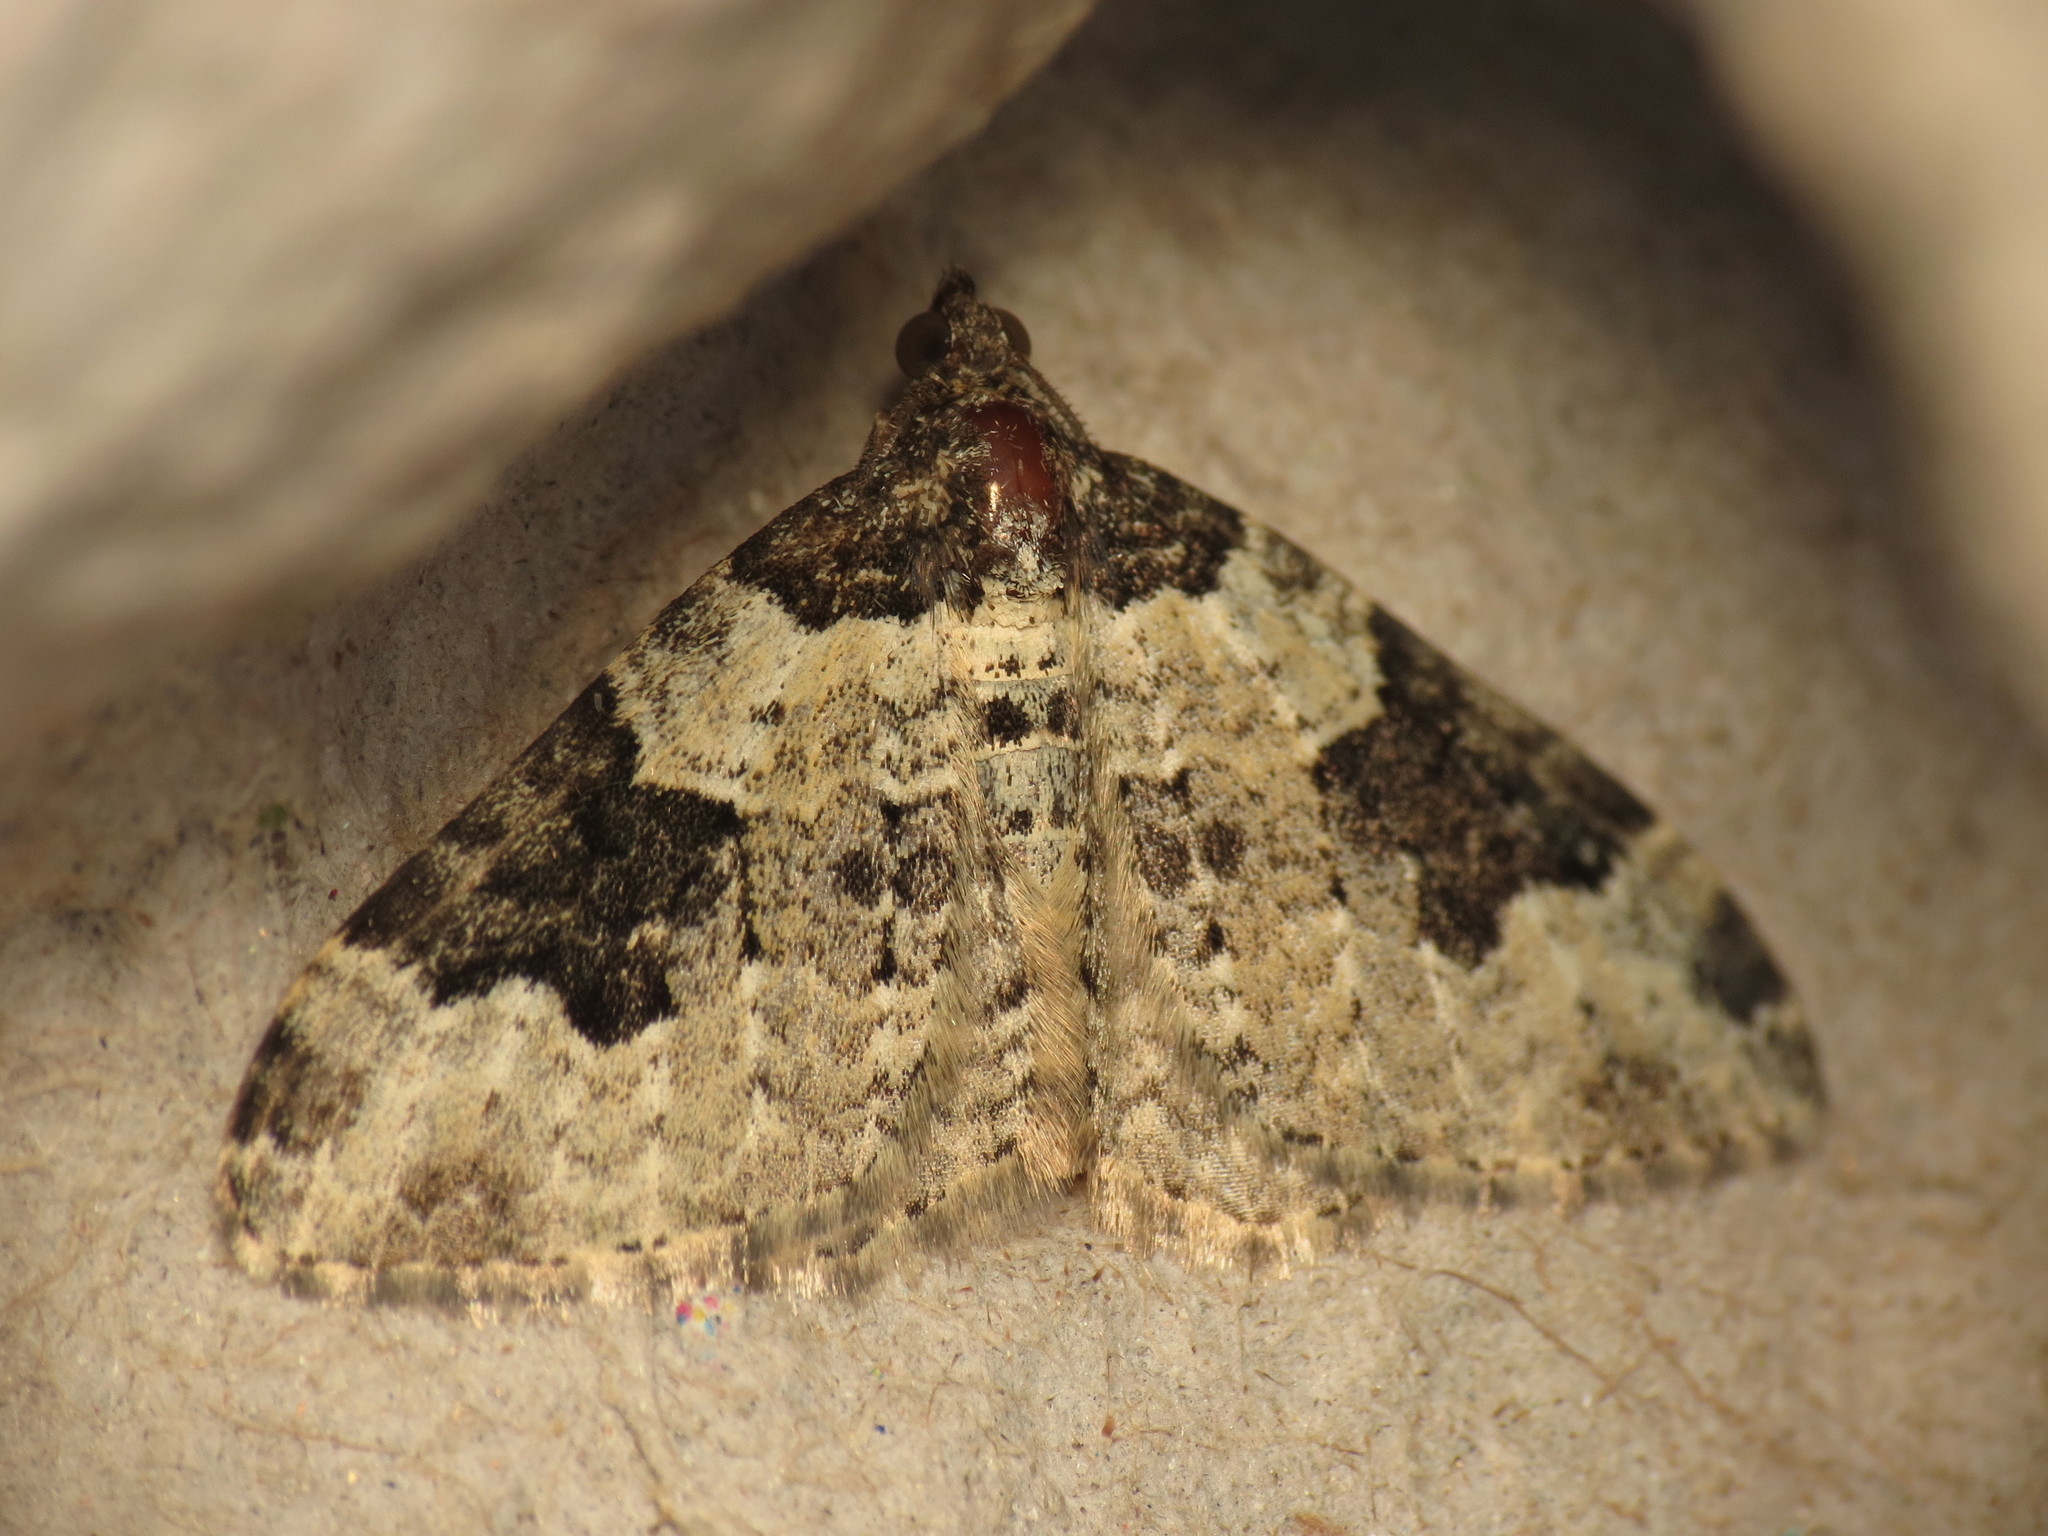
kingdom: Animalia
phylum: Arthropoda
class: Insecta
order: Lepidoptera
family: Geometridae
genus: Xanthorhoe
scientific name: Xanthorhoe fluctuata
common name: Garden carpet
